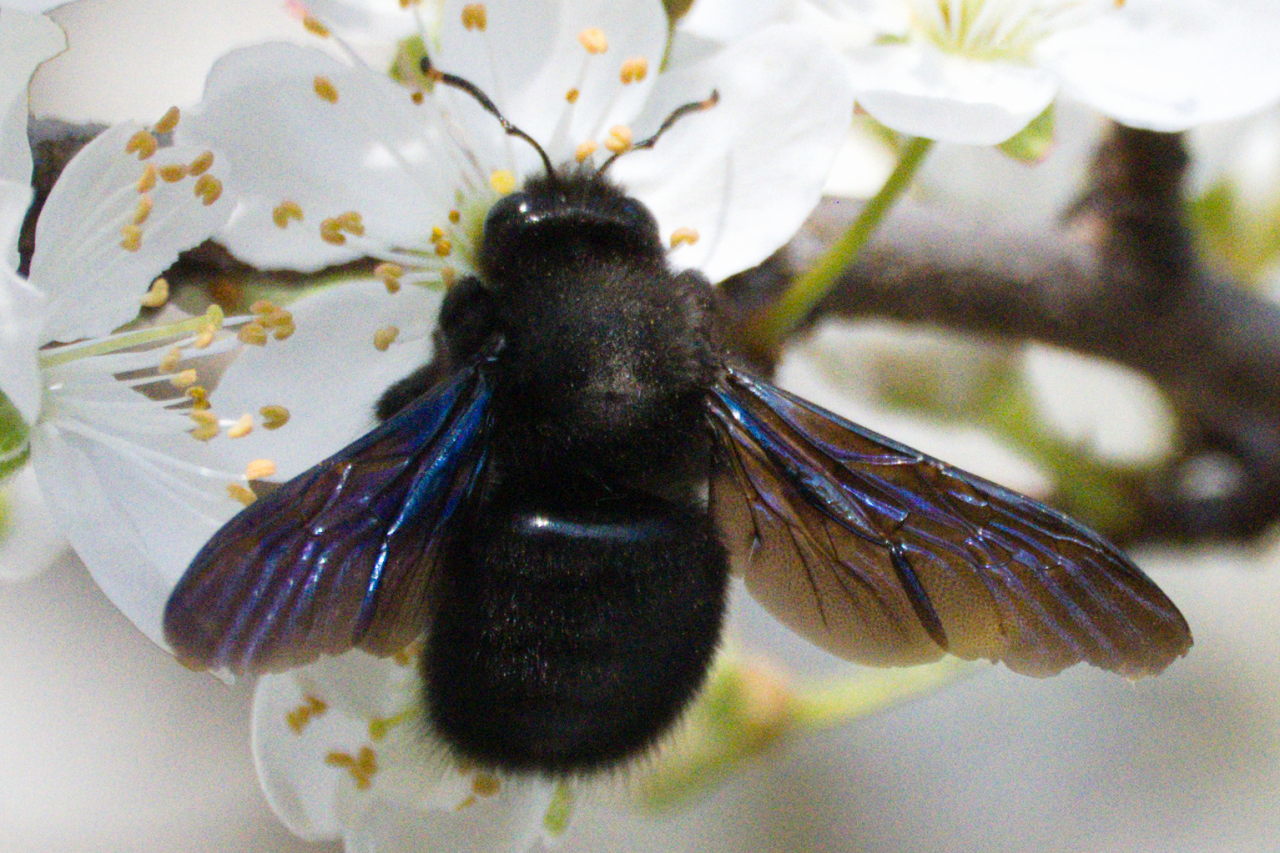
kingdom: Animalia
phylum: Arthropoda
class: Insecta
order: Hymenoptera
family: Apidae
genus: Xylocopa
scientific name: Xylocopa violacea
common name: Violet carpenter bee
